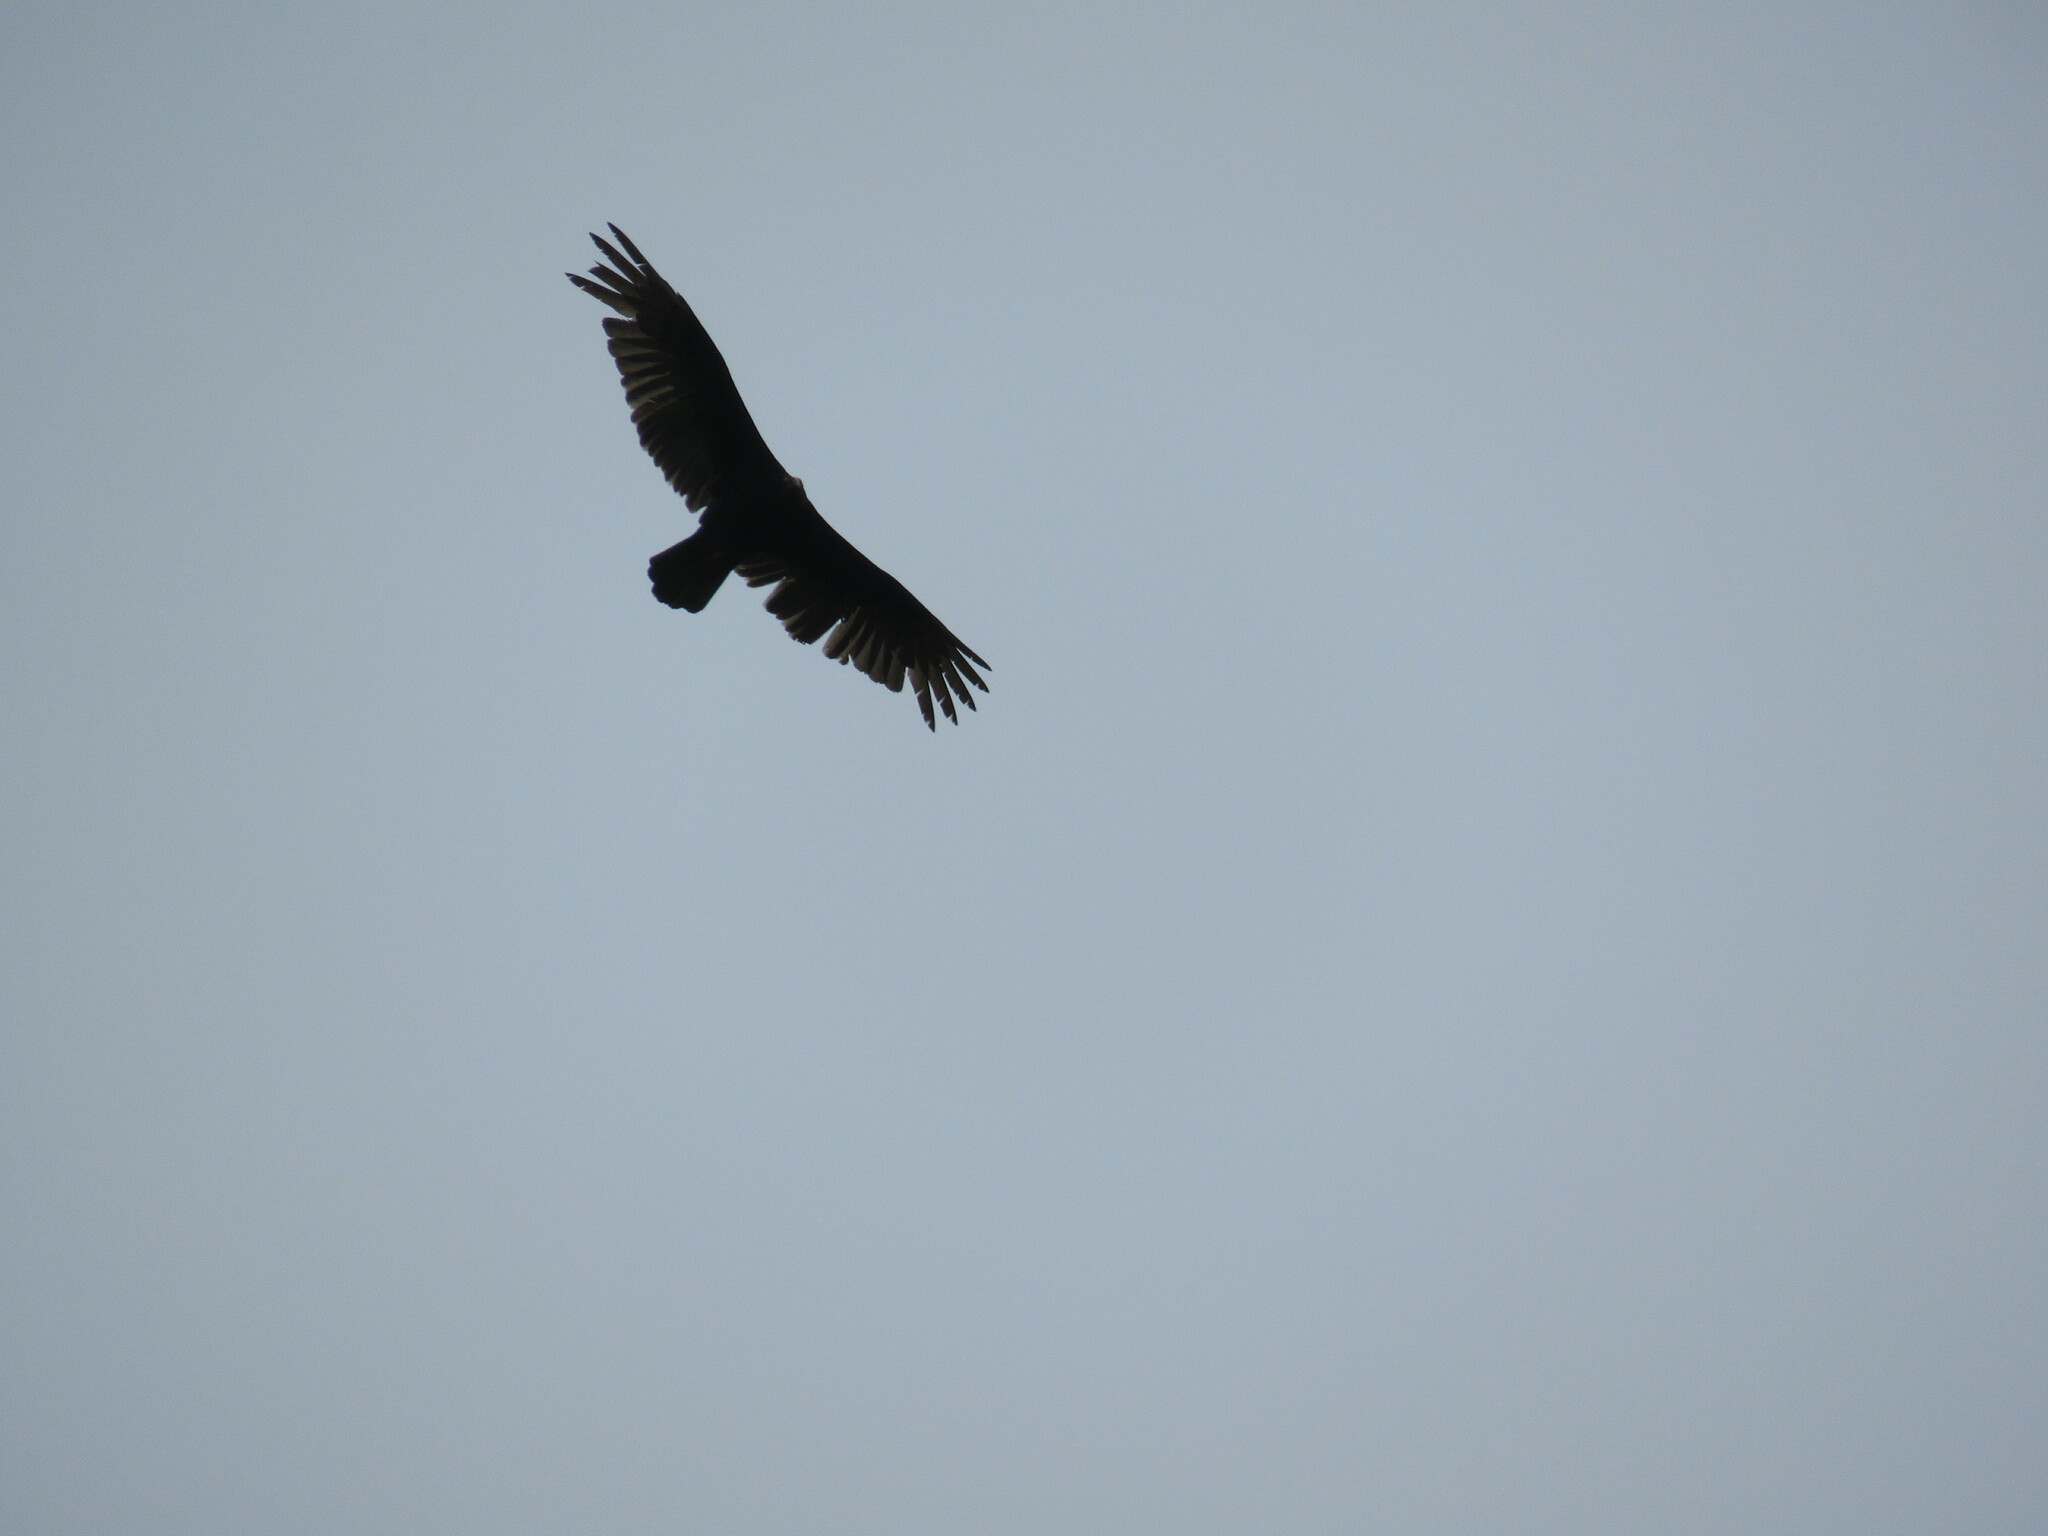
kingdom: Animalia
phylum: Chordata
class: Aves
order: Accipitriformes
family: Cathartidae
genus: Cathartes
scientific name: Cathartes aura
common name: Turkey vulture
